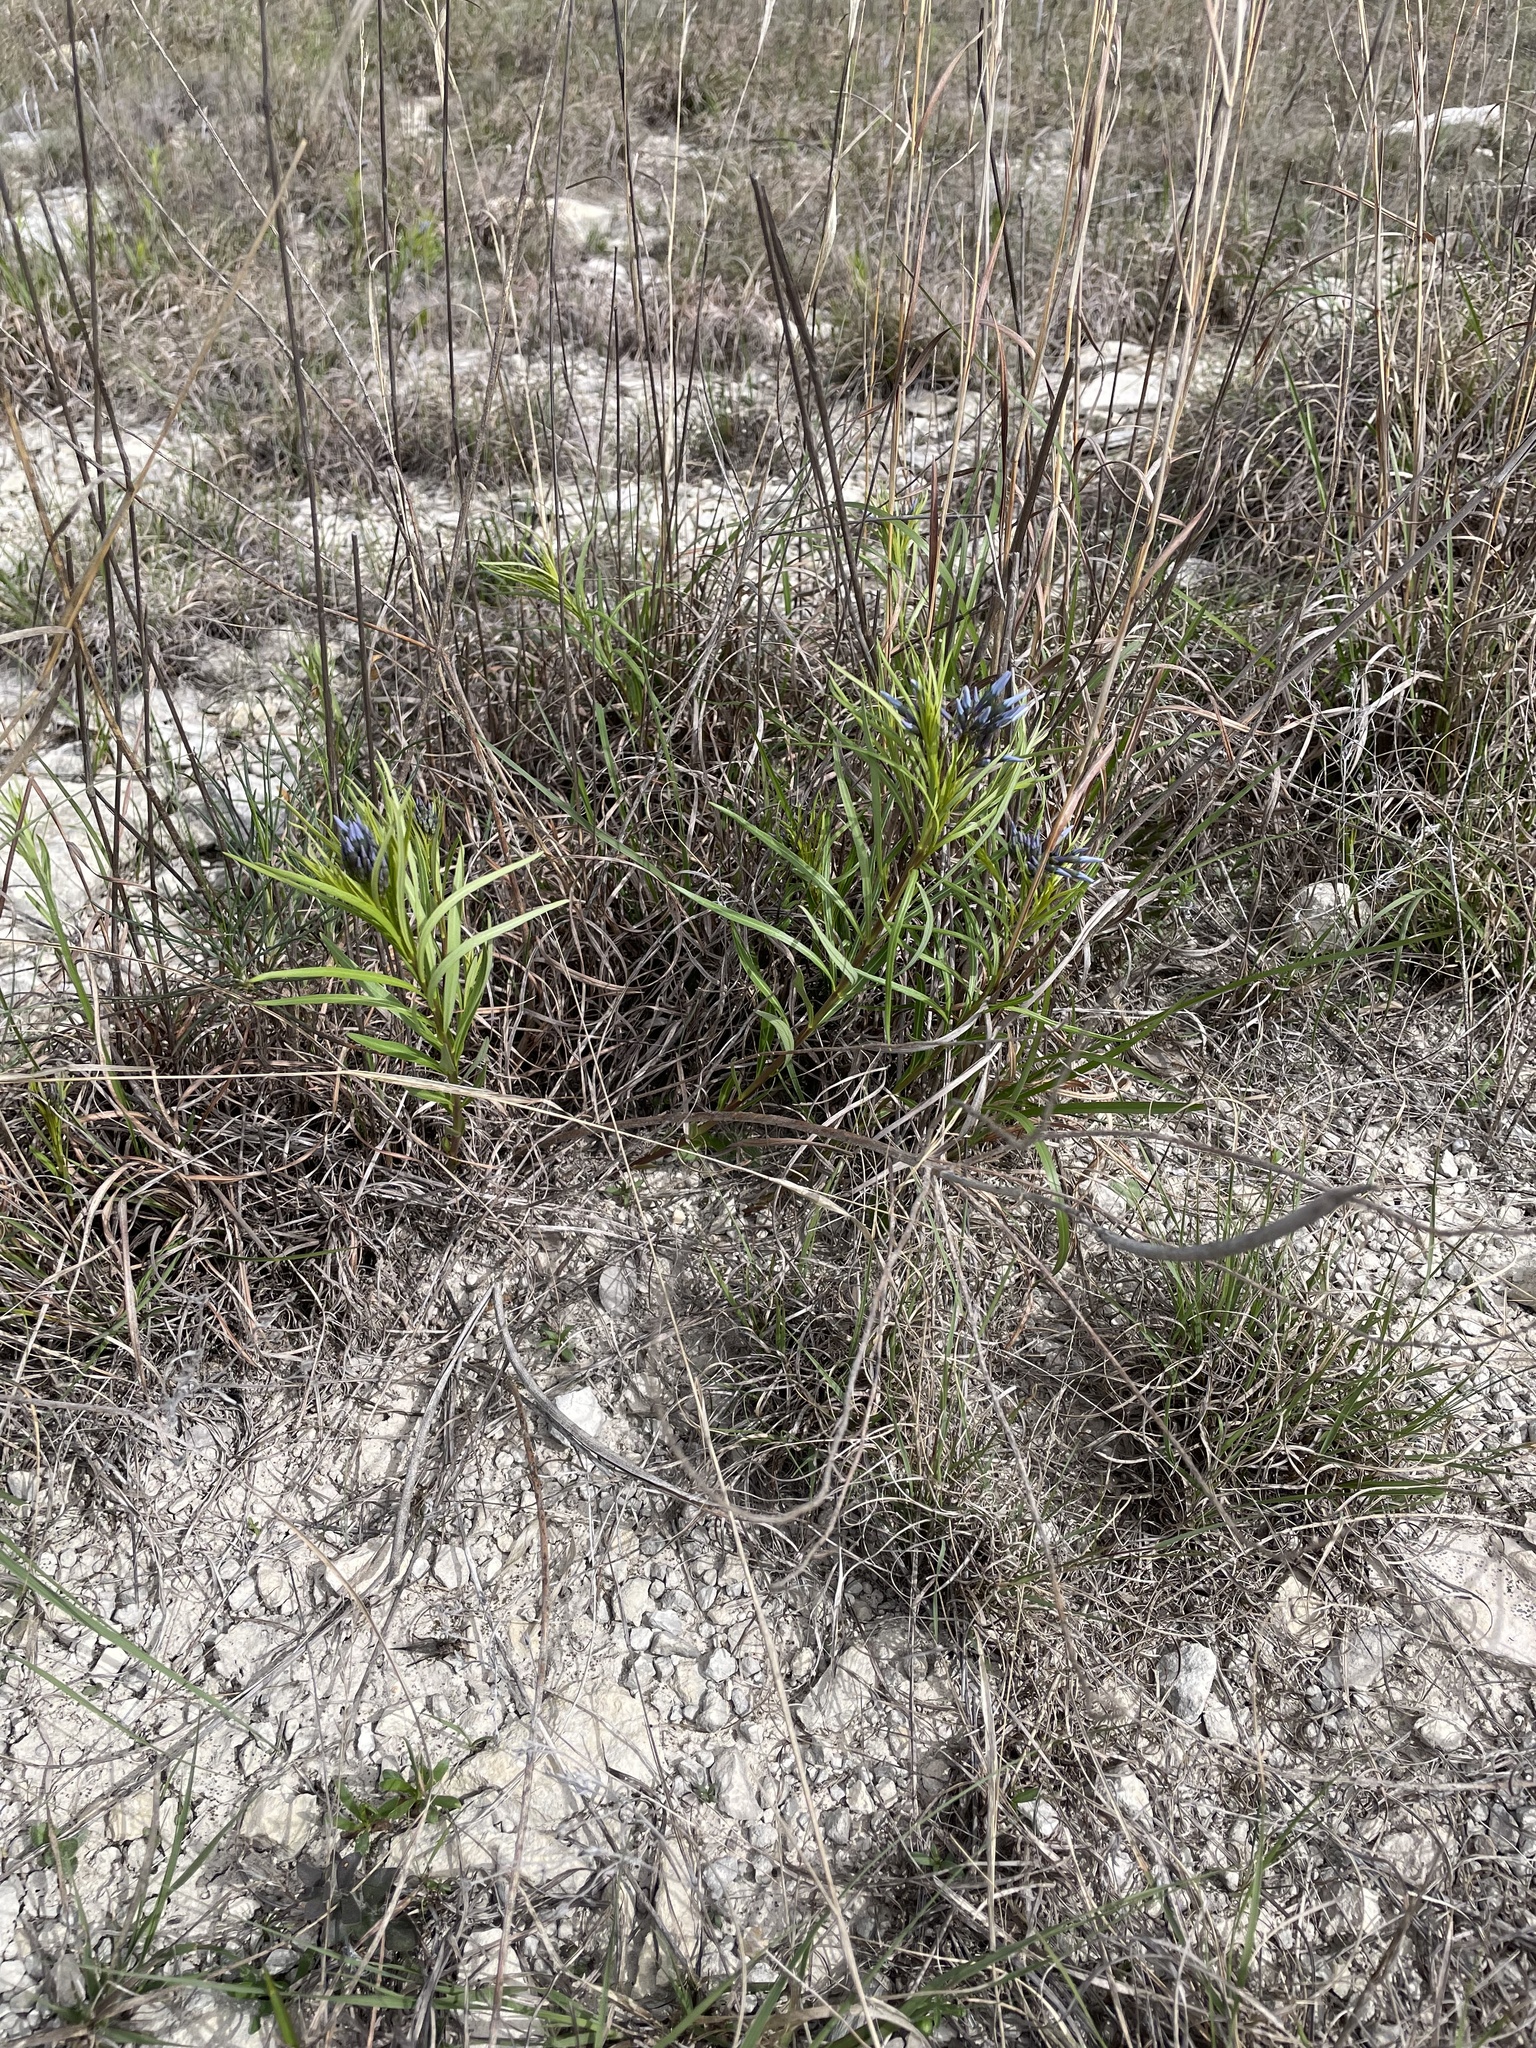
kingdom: Plantae
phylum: Tracheophyta
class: Magnoliopsida
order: Gentianales
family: Apocynaceae
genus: Amsonia
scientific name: Amsonia ciliata
